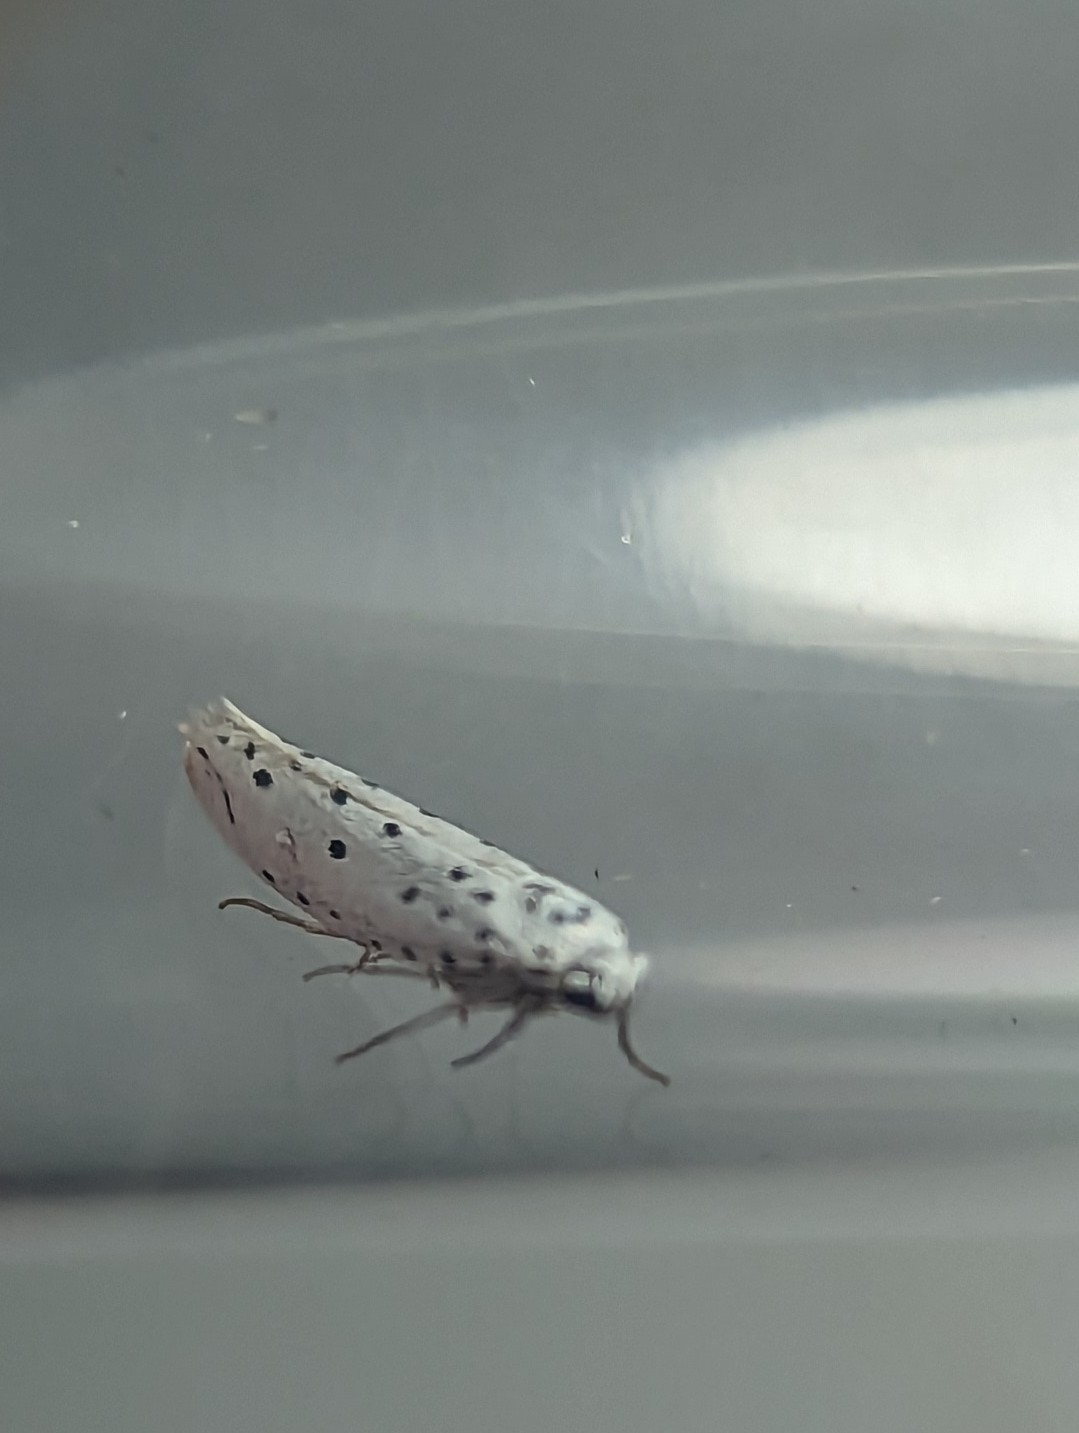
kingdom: Animalia
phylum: Arthropoda
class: Insecta
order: Lepidoptera
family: Yponomeutidae
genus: Yponomeuta
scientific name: Yponomeuta
